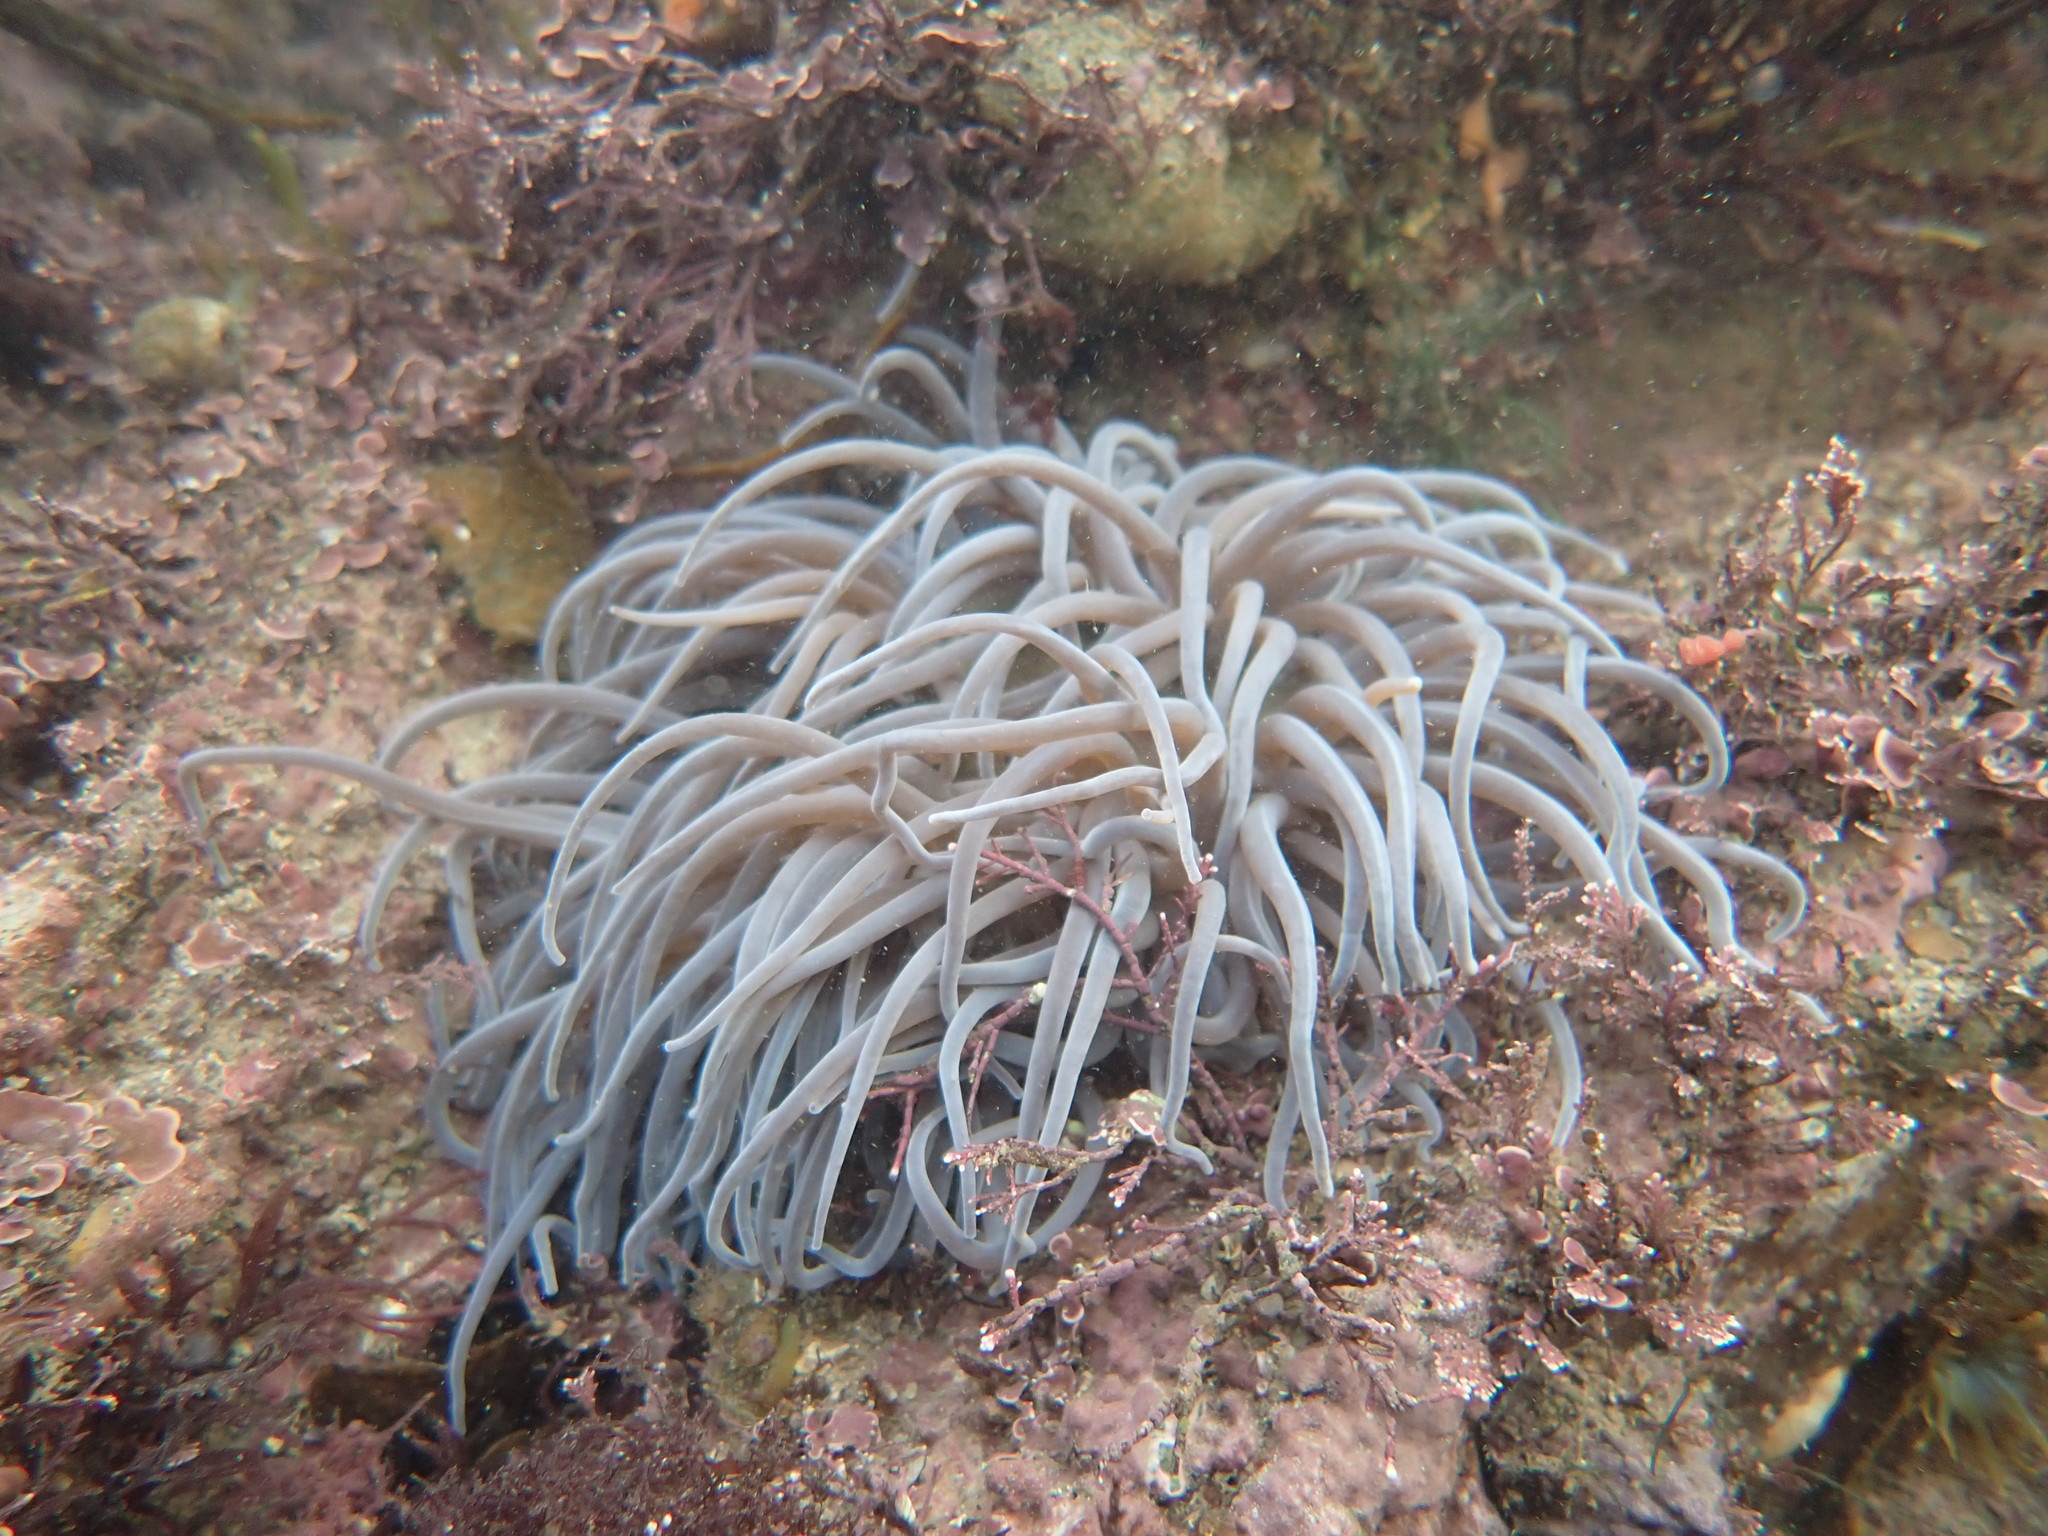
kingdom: Animalia
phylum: Cnidaria
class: Anthozoa
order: Actiniaria
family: Actiniidae
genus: Anemonia
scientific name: Anemonia viridis
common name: Snakelocks anemone
